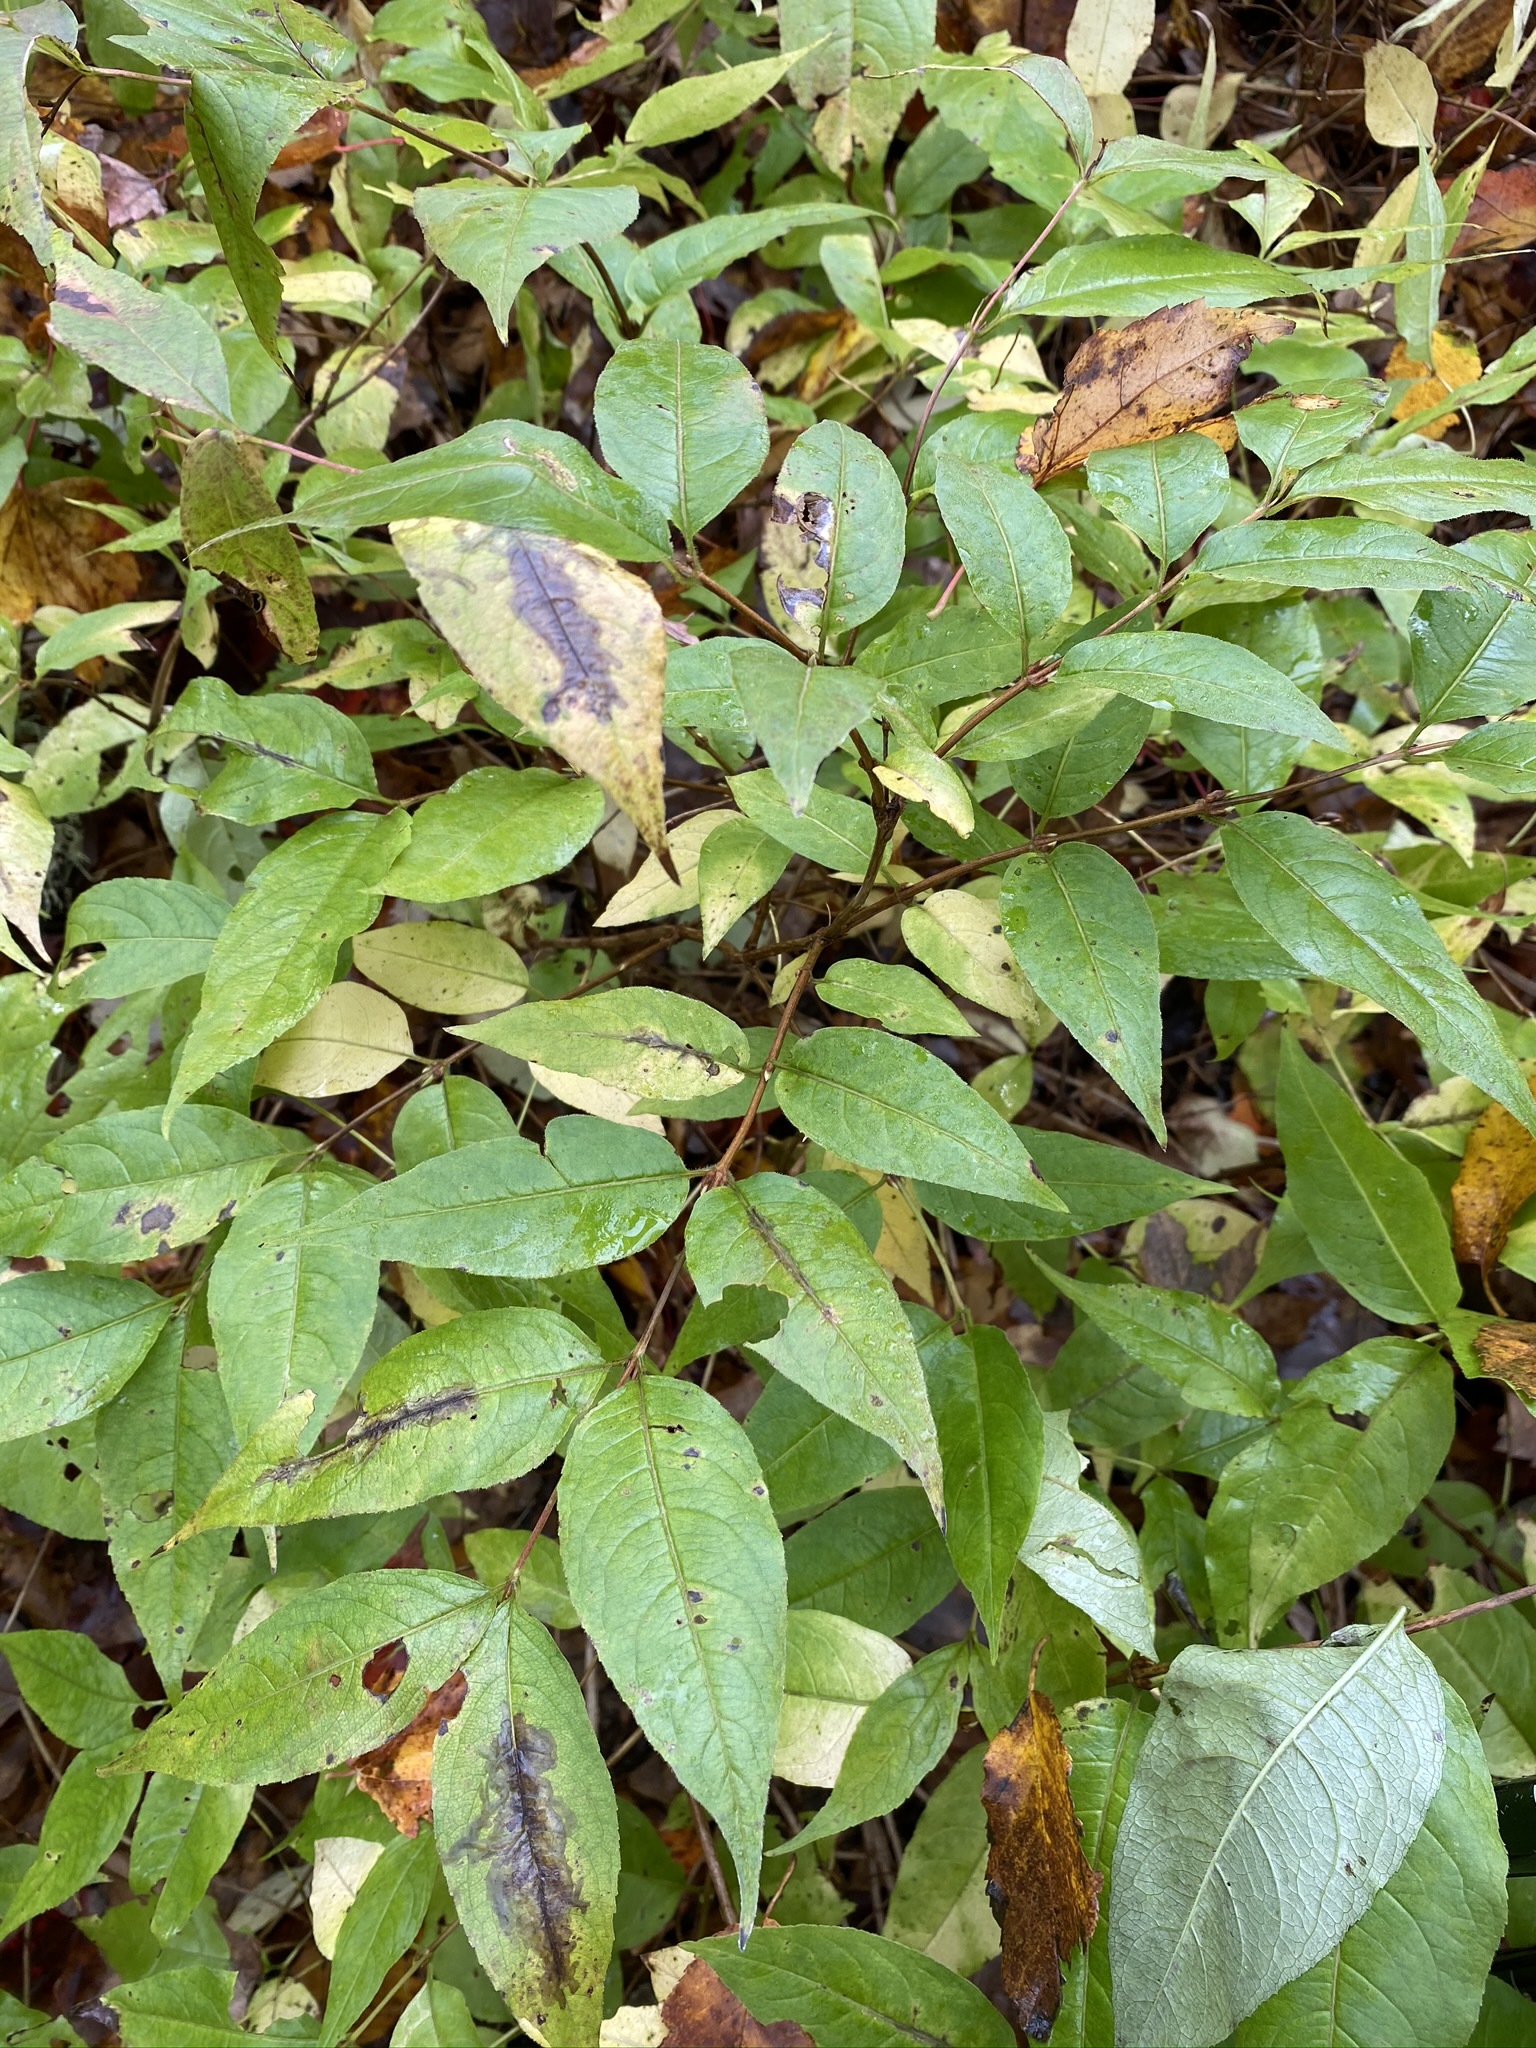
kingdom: Plantae
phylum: Tracheophyta
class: Magnoliopsida
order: Dipsacales
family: Caprifoliaceae
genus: Diervilla
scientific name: Diervilla lonicera
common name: Bush-honeysuckle
